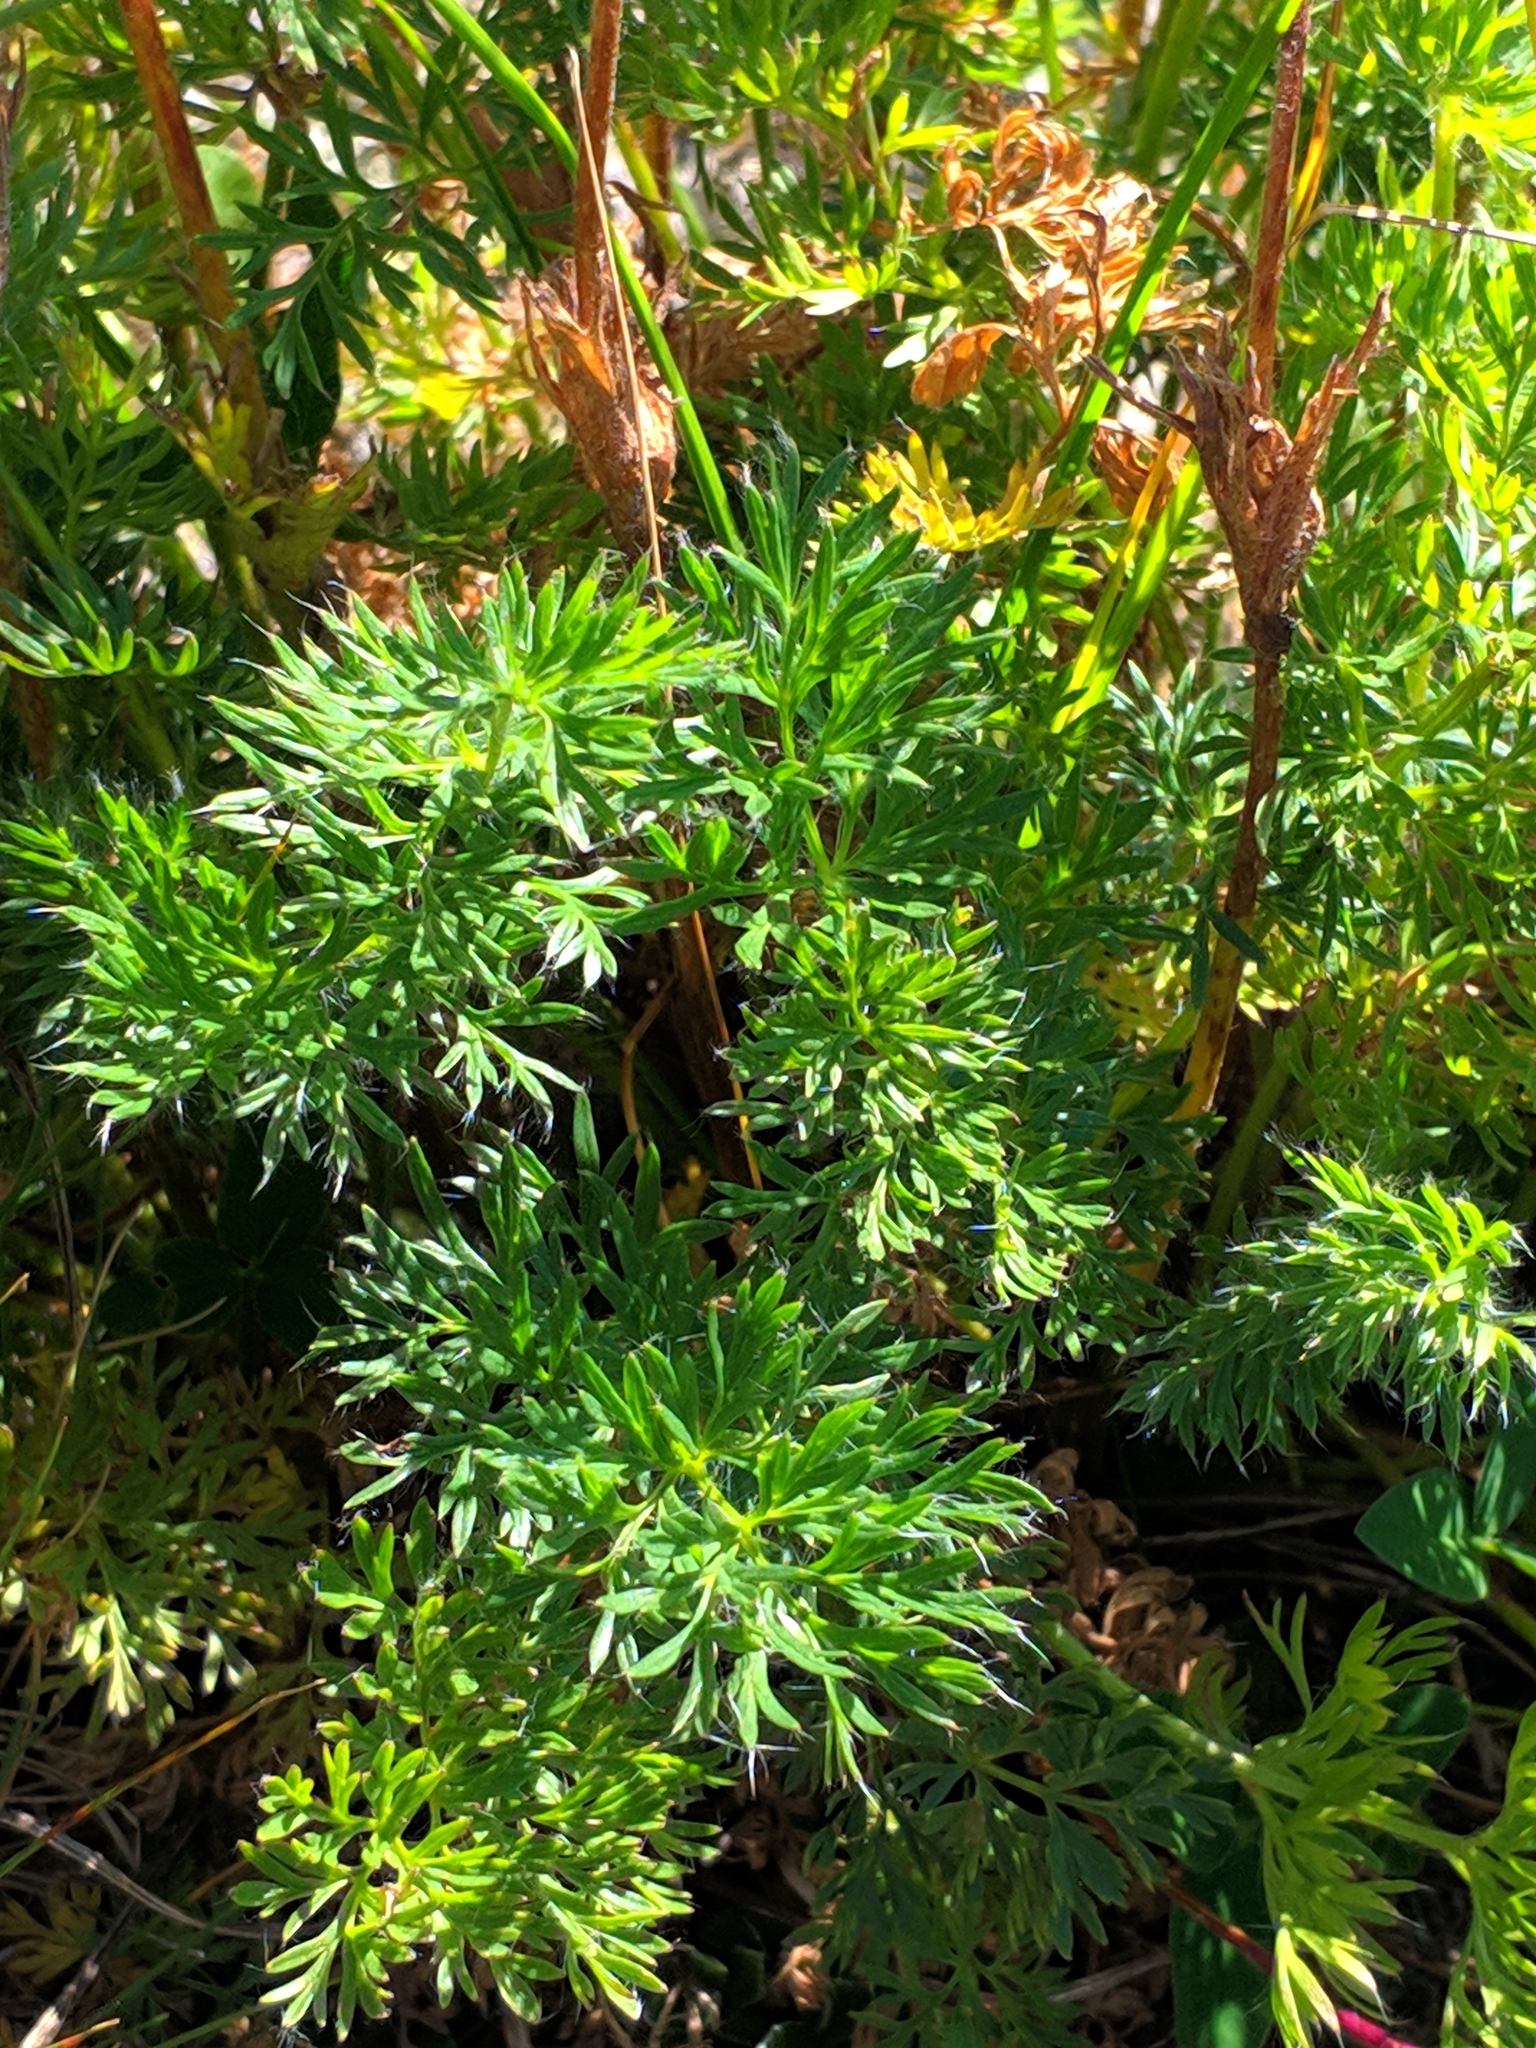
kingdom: Plantae
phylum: Tracheophyta
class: Magnoliopsida
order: Ranunculales
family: Ranunculaceae
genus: Pulsatilla
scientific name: Pulsatilla aurea
